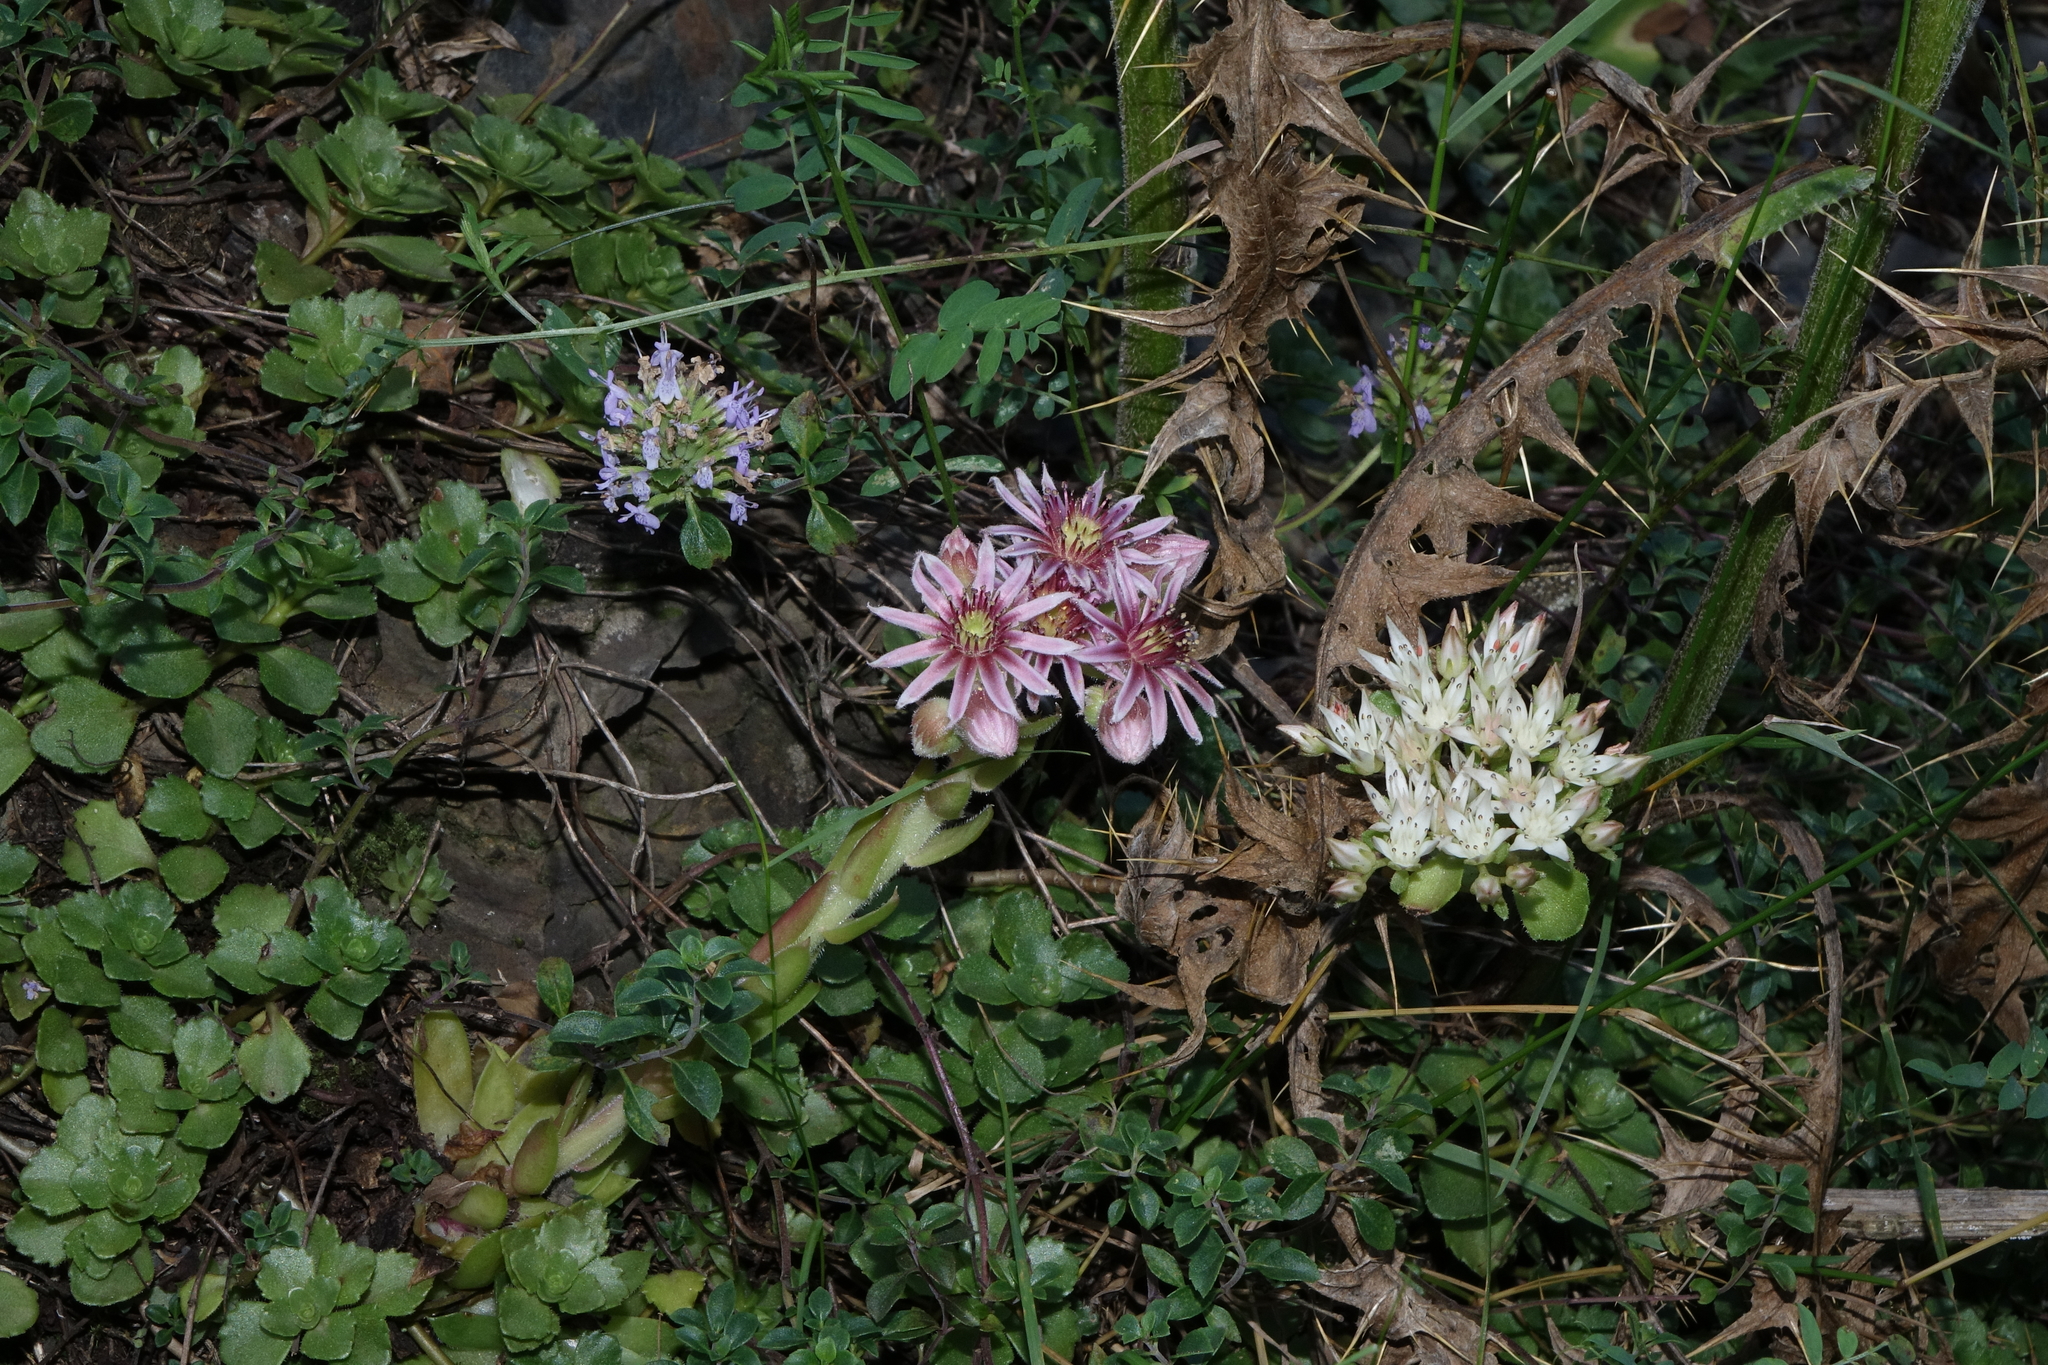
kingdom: Plantae
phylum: Tracheophyta
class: Magnoliopsida
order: Saxifragales
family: Crassulaceae
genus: Phedimus
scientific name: Phedimus spurius
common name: Caucasian stonecrop
